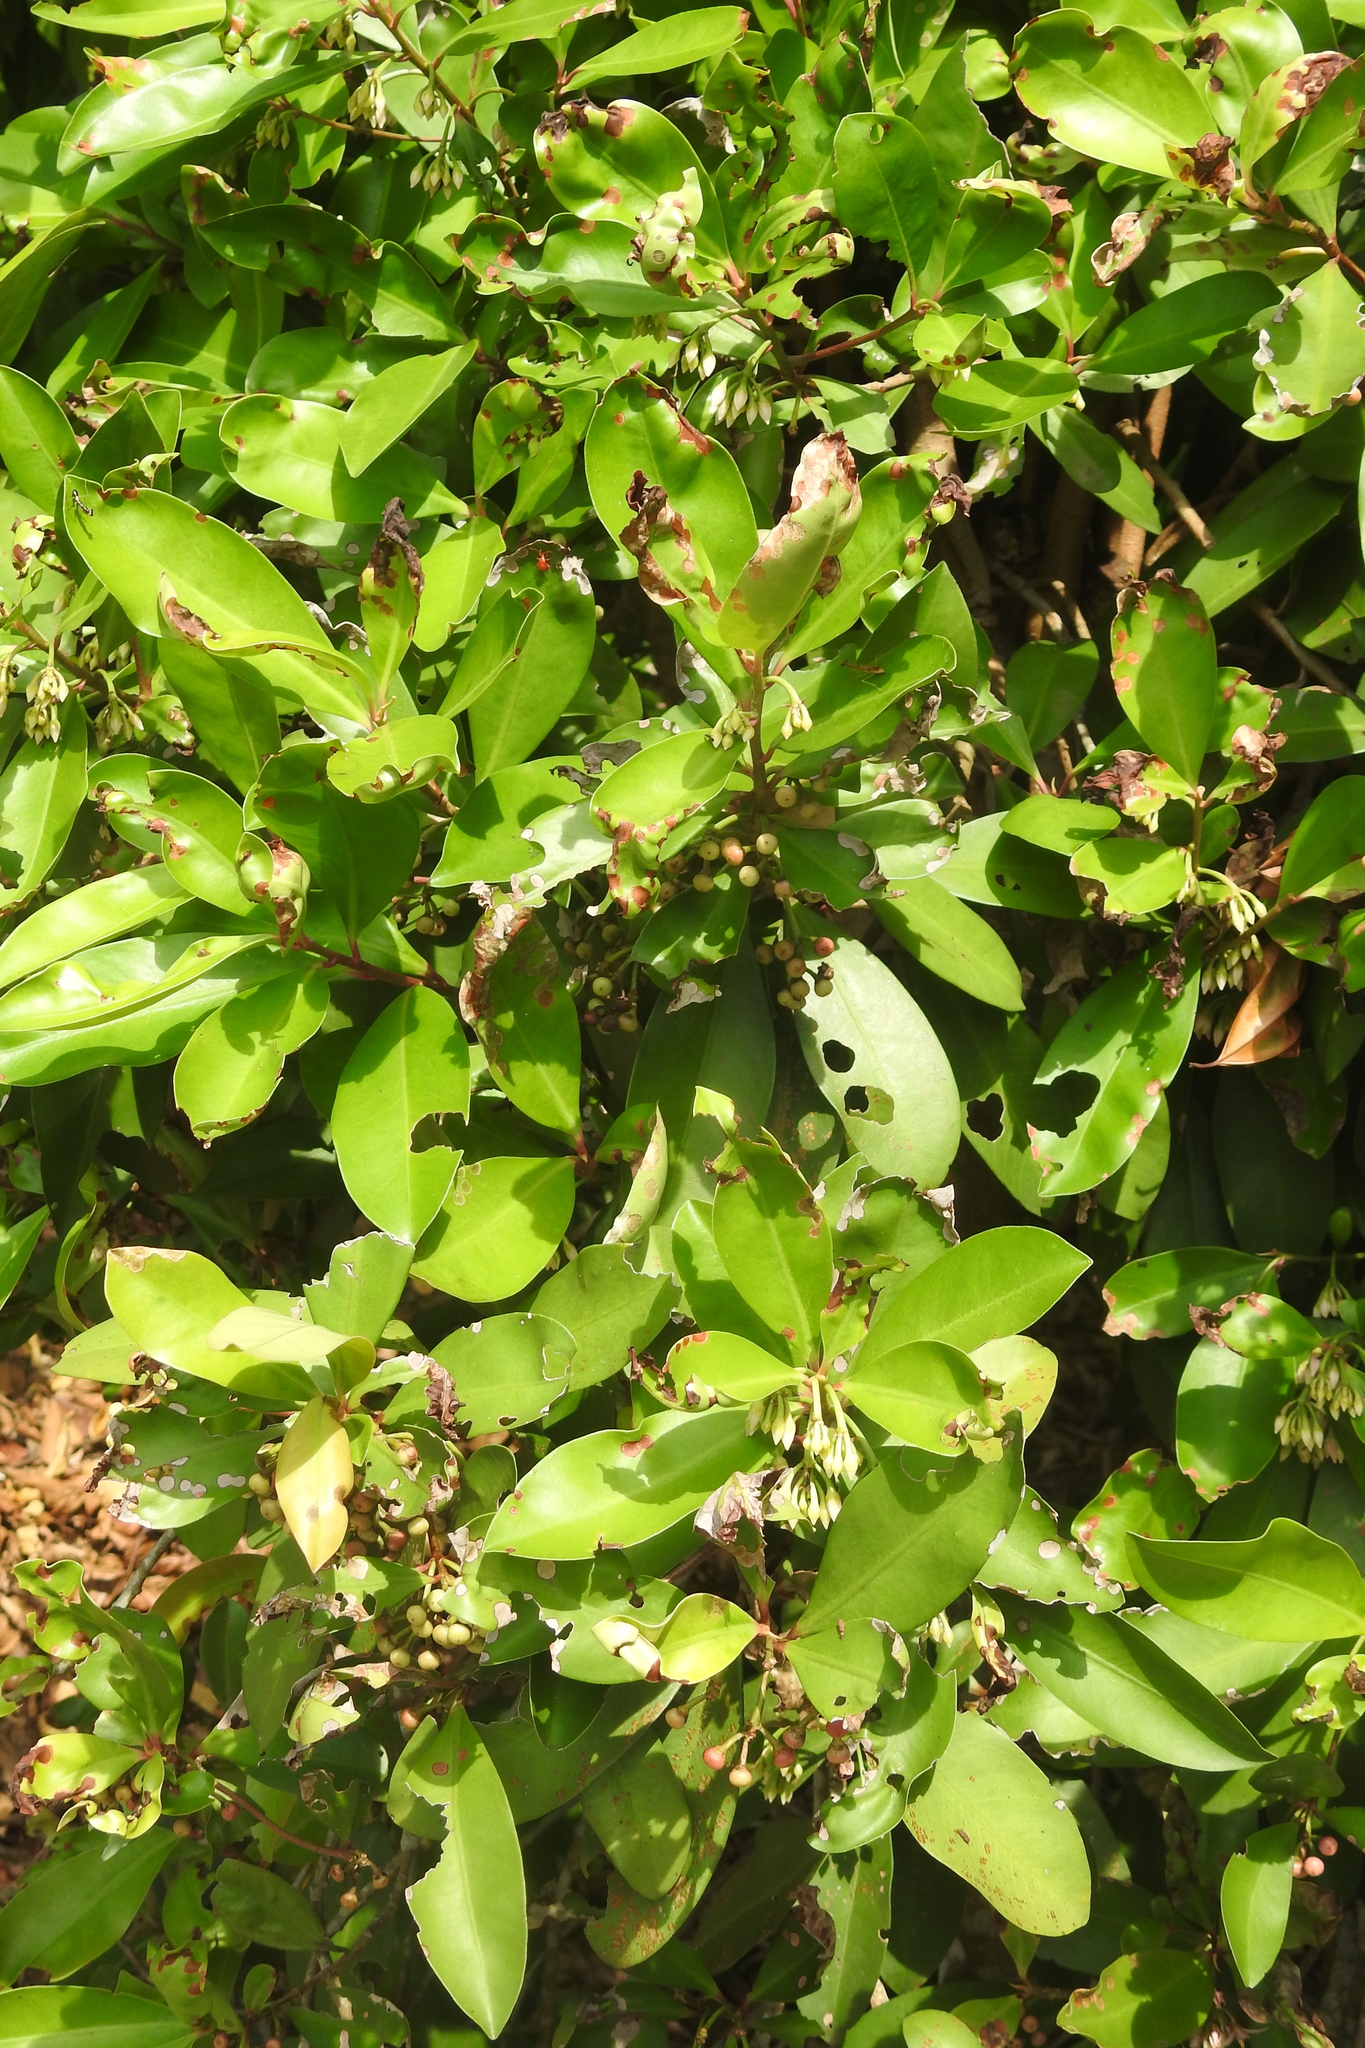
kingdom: Plantae
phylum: Tracheophyta
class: Magnoliopsida
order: Ericales
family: Primulaceae
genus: Ardisia
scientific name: Ardisia elliptica
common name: Shoebutton
